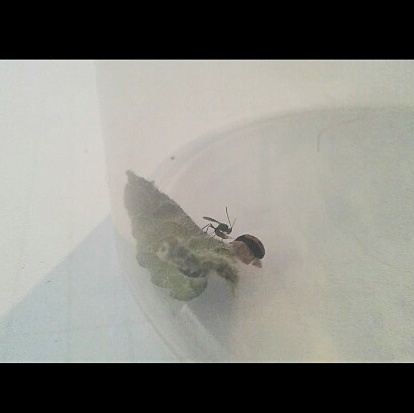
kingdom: Viruses
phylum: Pisuviricota
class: Pisoniviricetes
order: Picornavirales
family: Iflaviridae
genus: Iflavirus
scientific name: Iflavirus dinococcinellae
